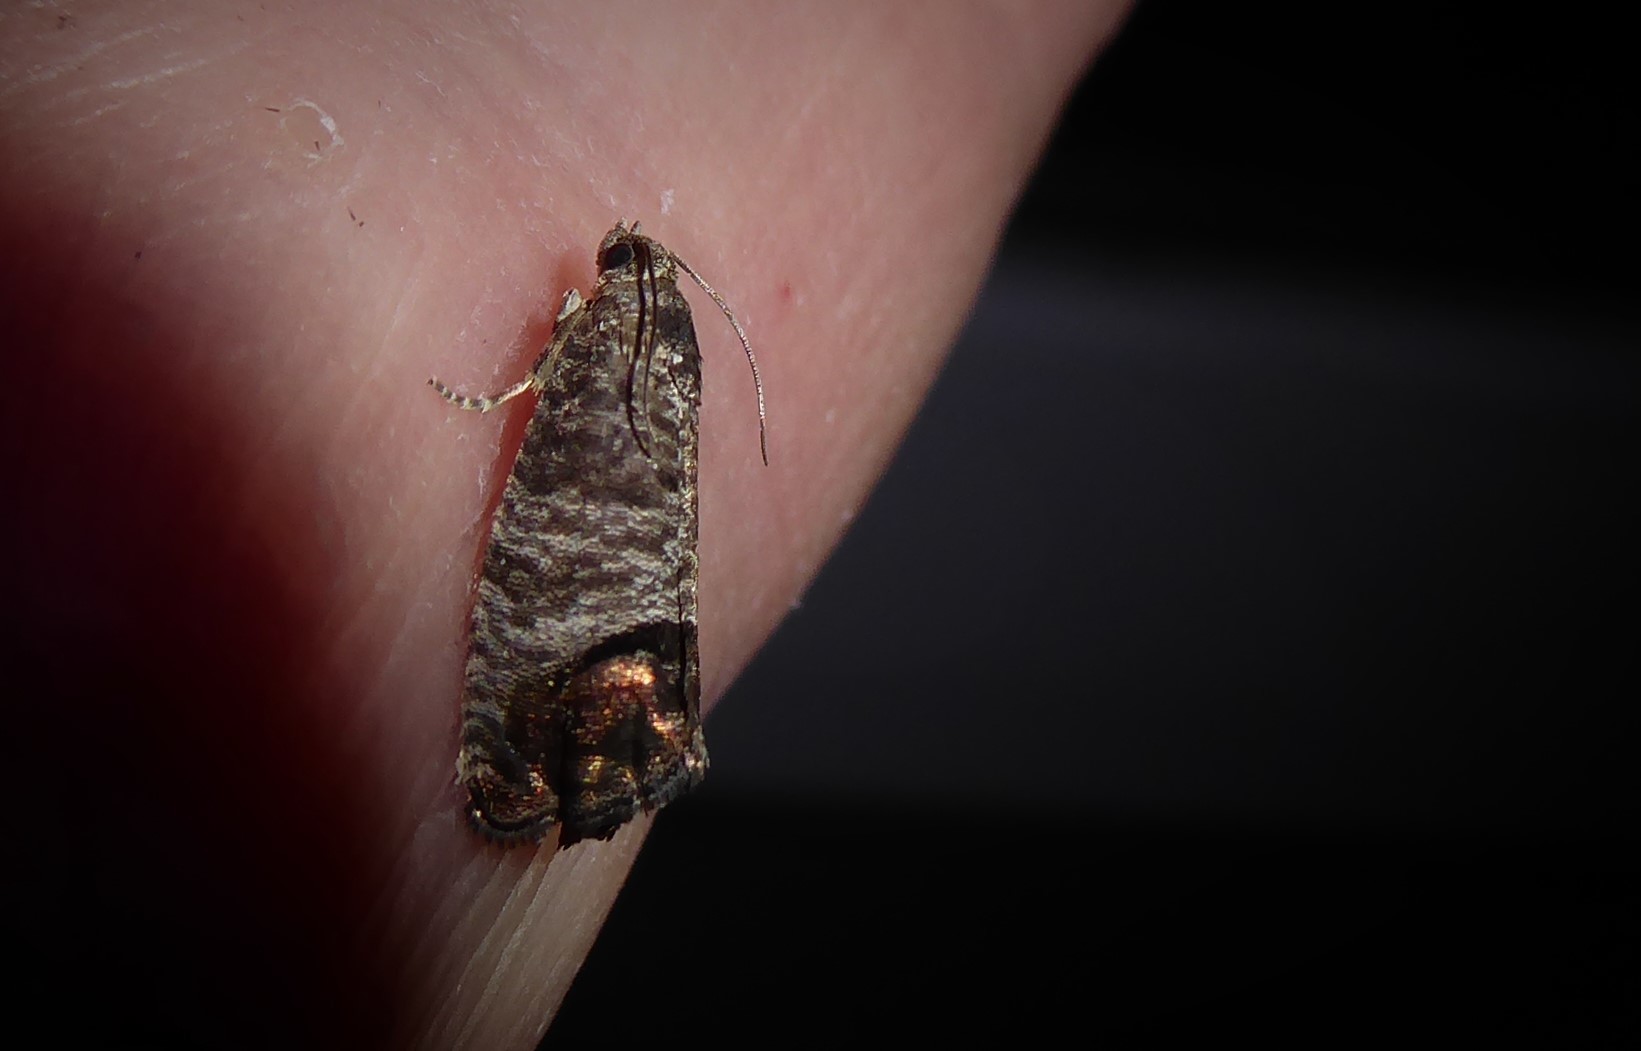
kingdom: Animalia
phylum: Arthropoda
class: Insecta
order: Lepidoptera
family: Tortricidae
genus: Cydia
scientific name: Cydia pomonella
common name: Codling moth
